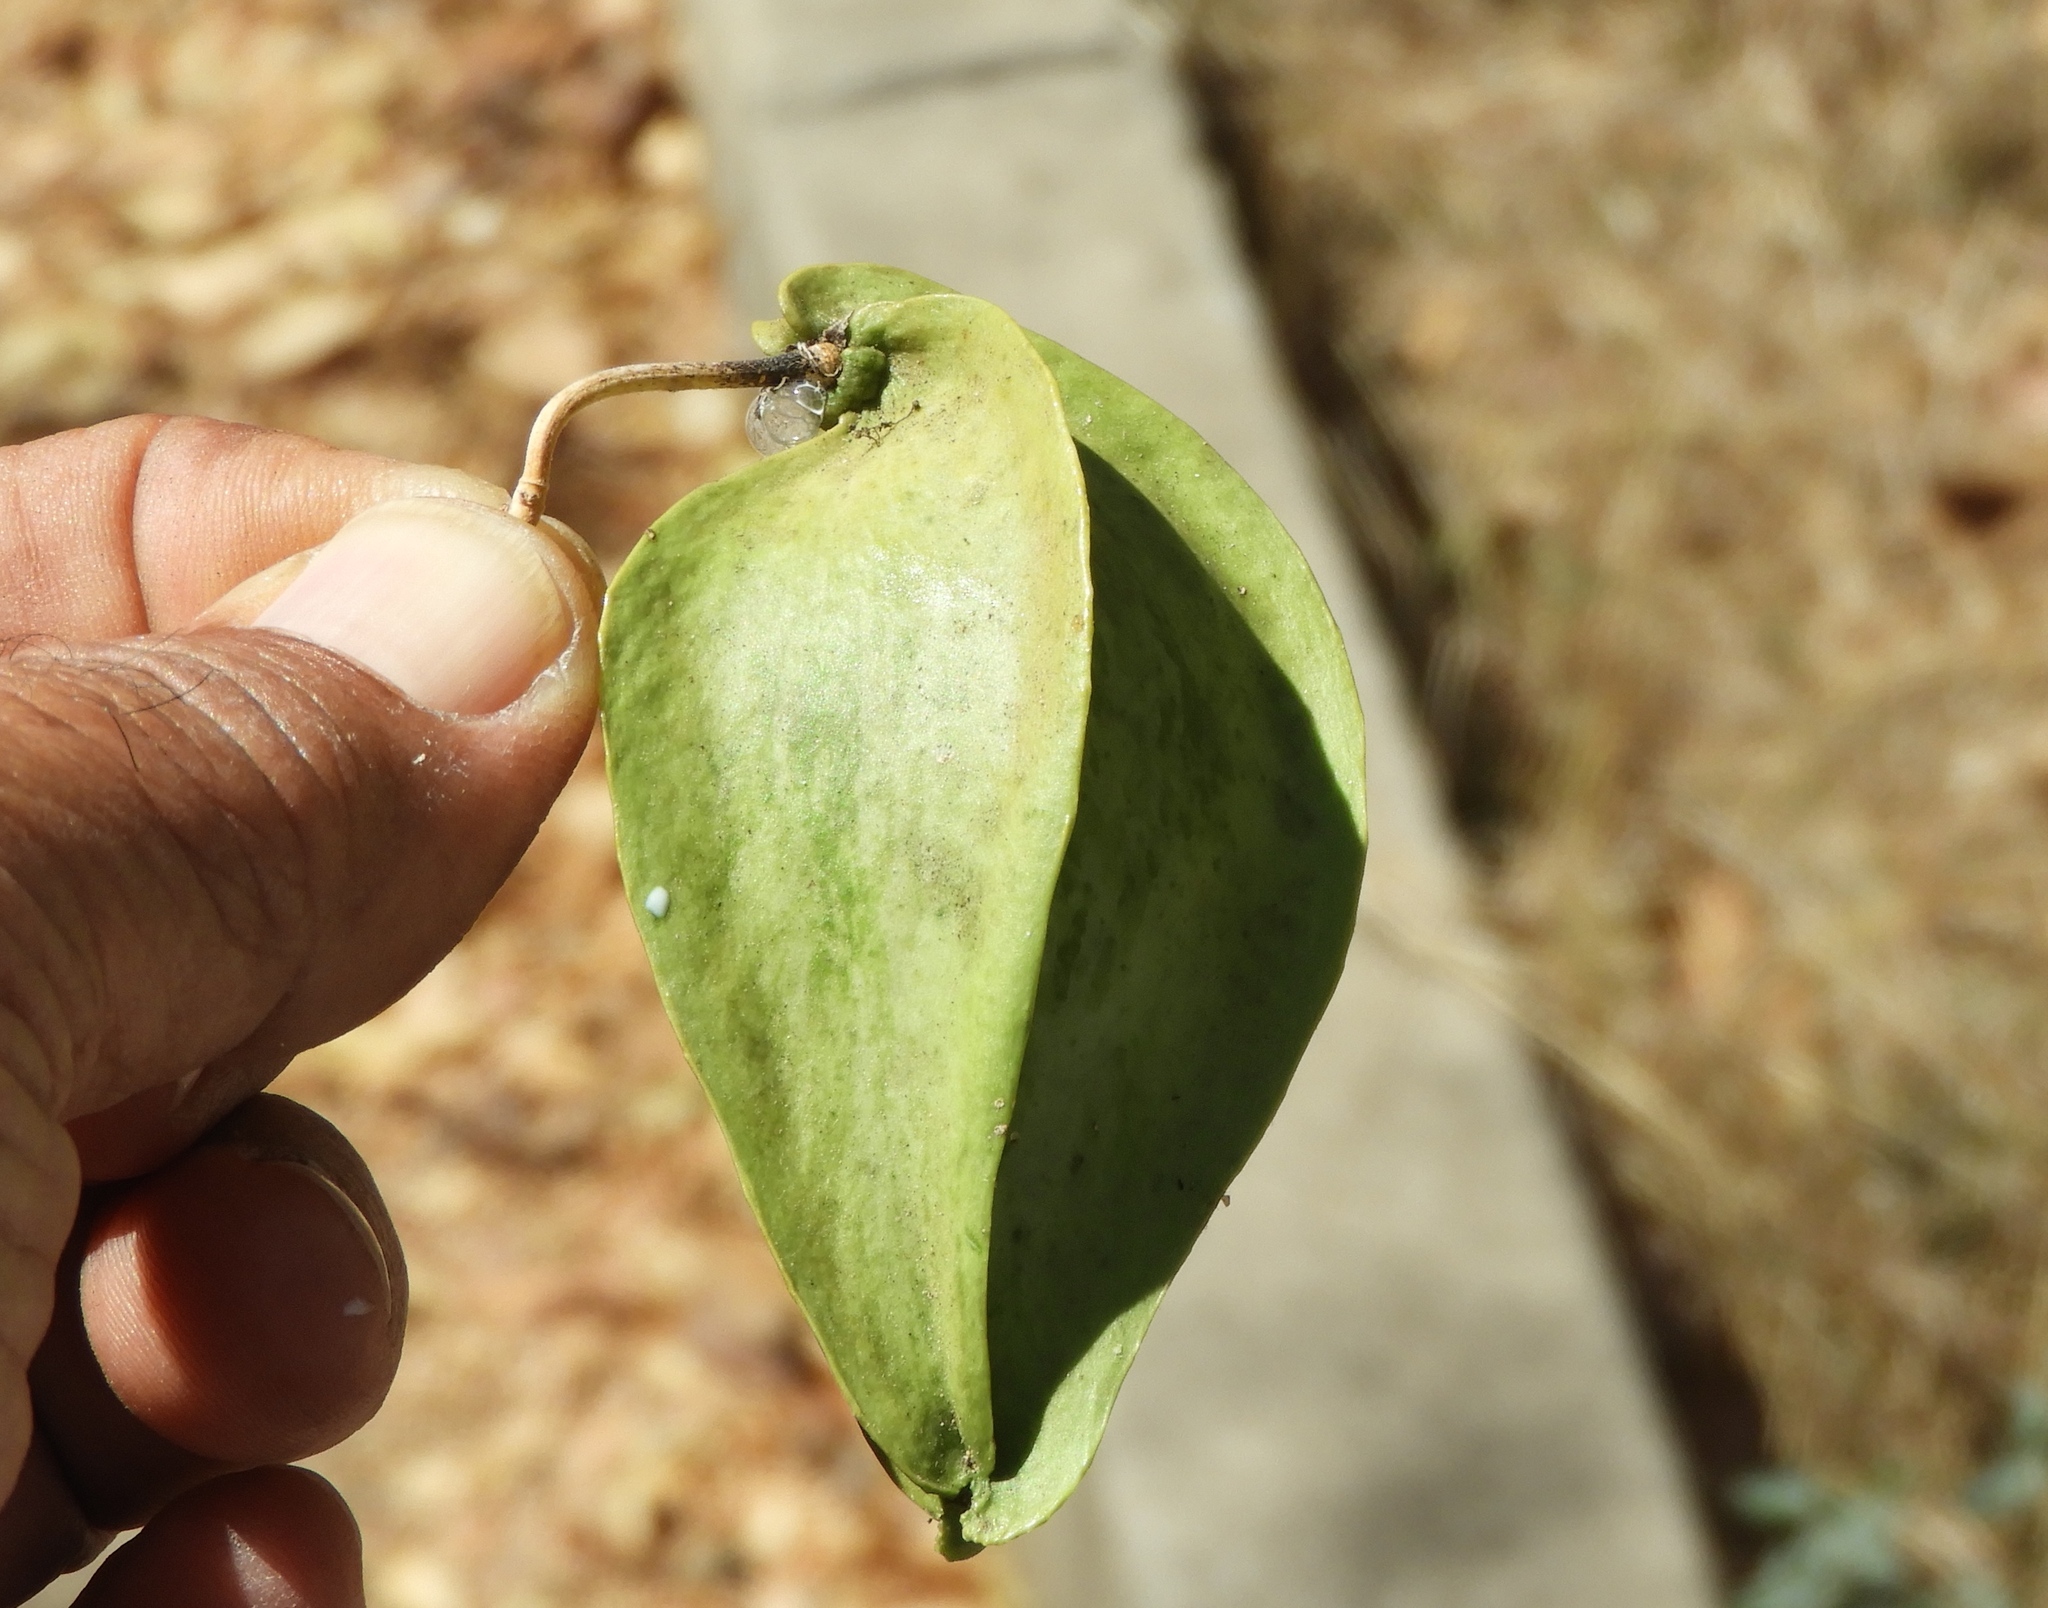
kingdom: Plantae
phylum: Tracheophyta
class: Magnoliopsida
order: Gentianales
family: Apocynaceae
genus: Gonolobus
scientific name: Gonolobus naturalistae
